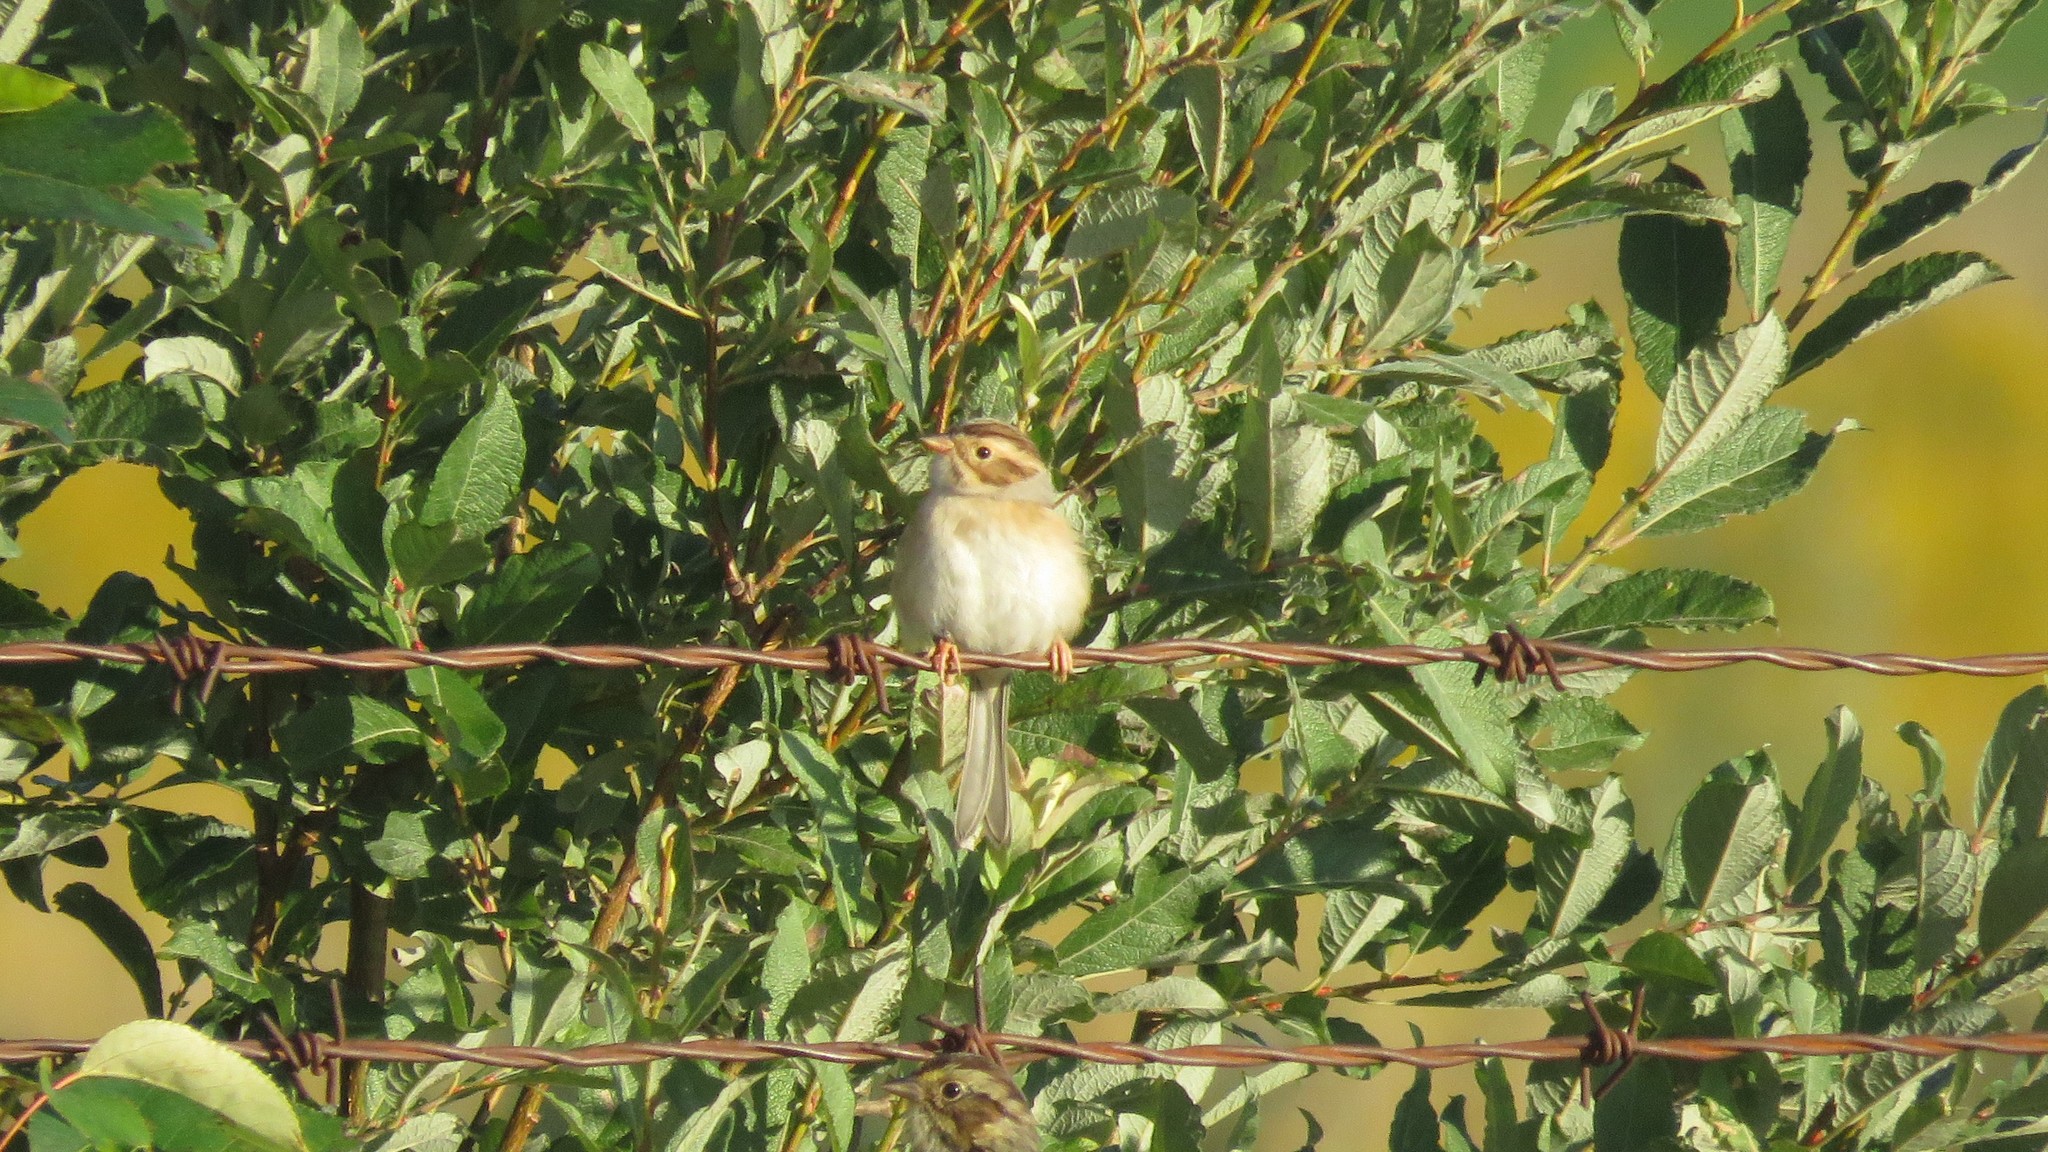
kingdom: Animalia
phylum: Chordata
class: Aves
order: Passeriformes
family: Passerellidae
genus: Spizella
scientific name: Spizella pallida
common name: Clay-colored sparrow
